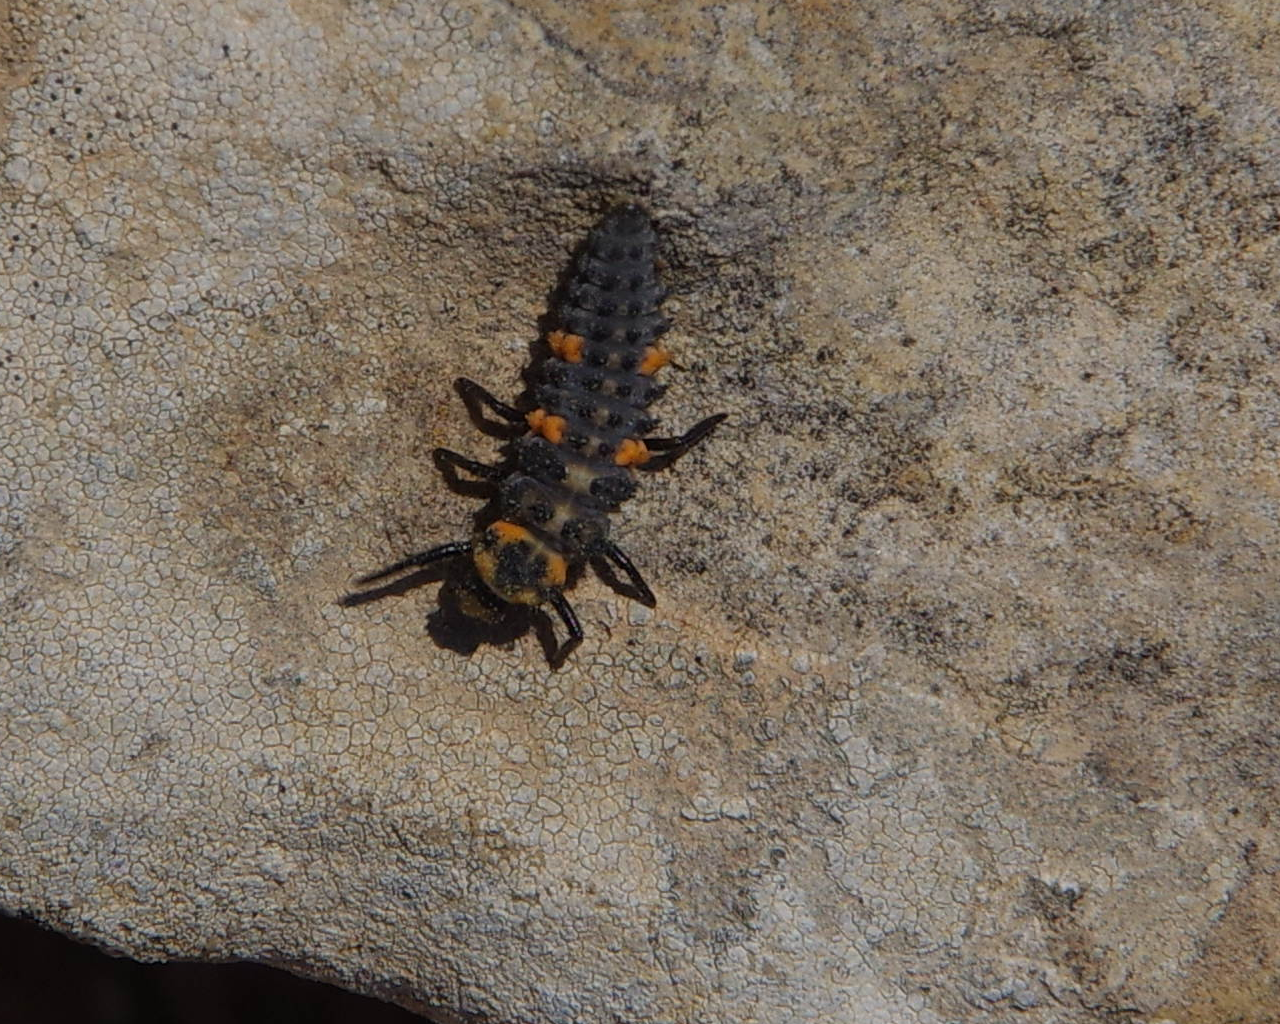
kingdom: Animalia
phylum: Arthropoda
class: Insecta
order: Coleoptera
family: Coccinellidae
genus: Coccinella
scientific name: Coccinella septempunctata
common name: Sevenspotted lady beetle
